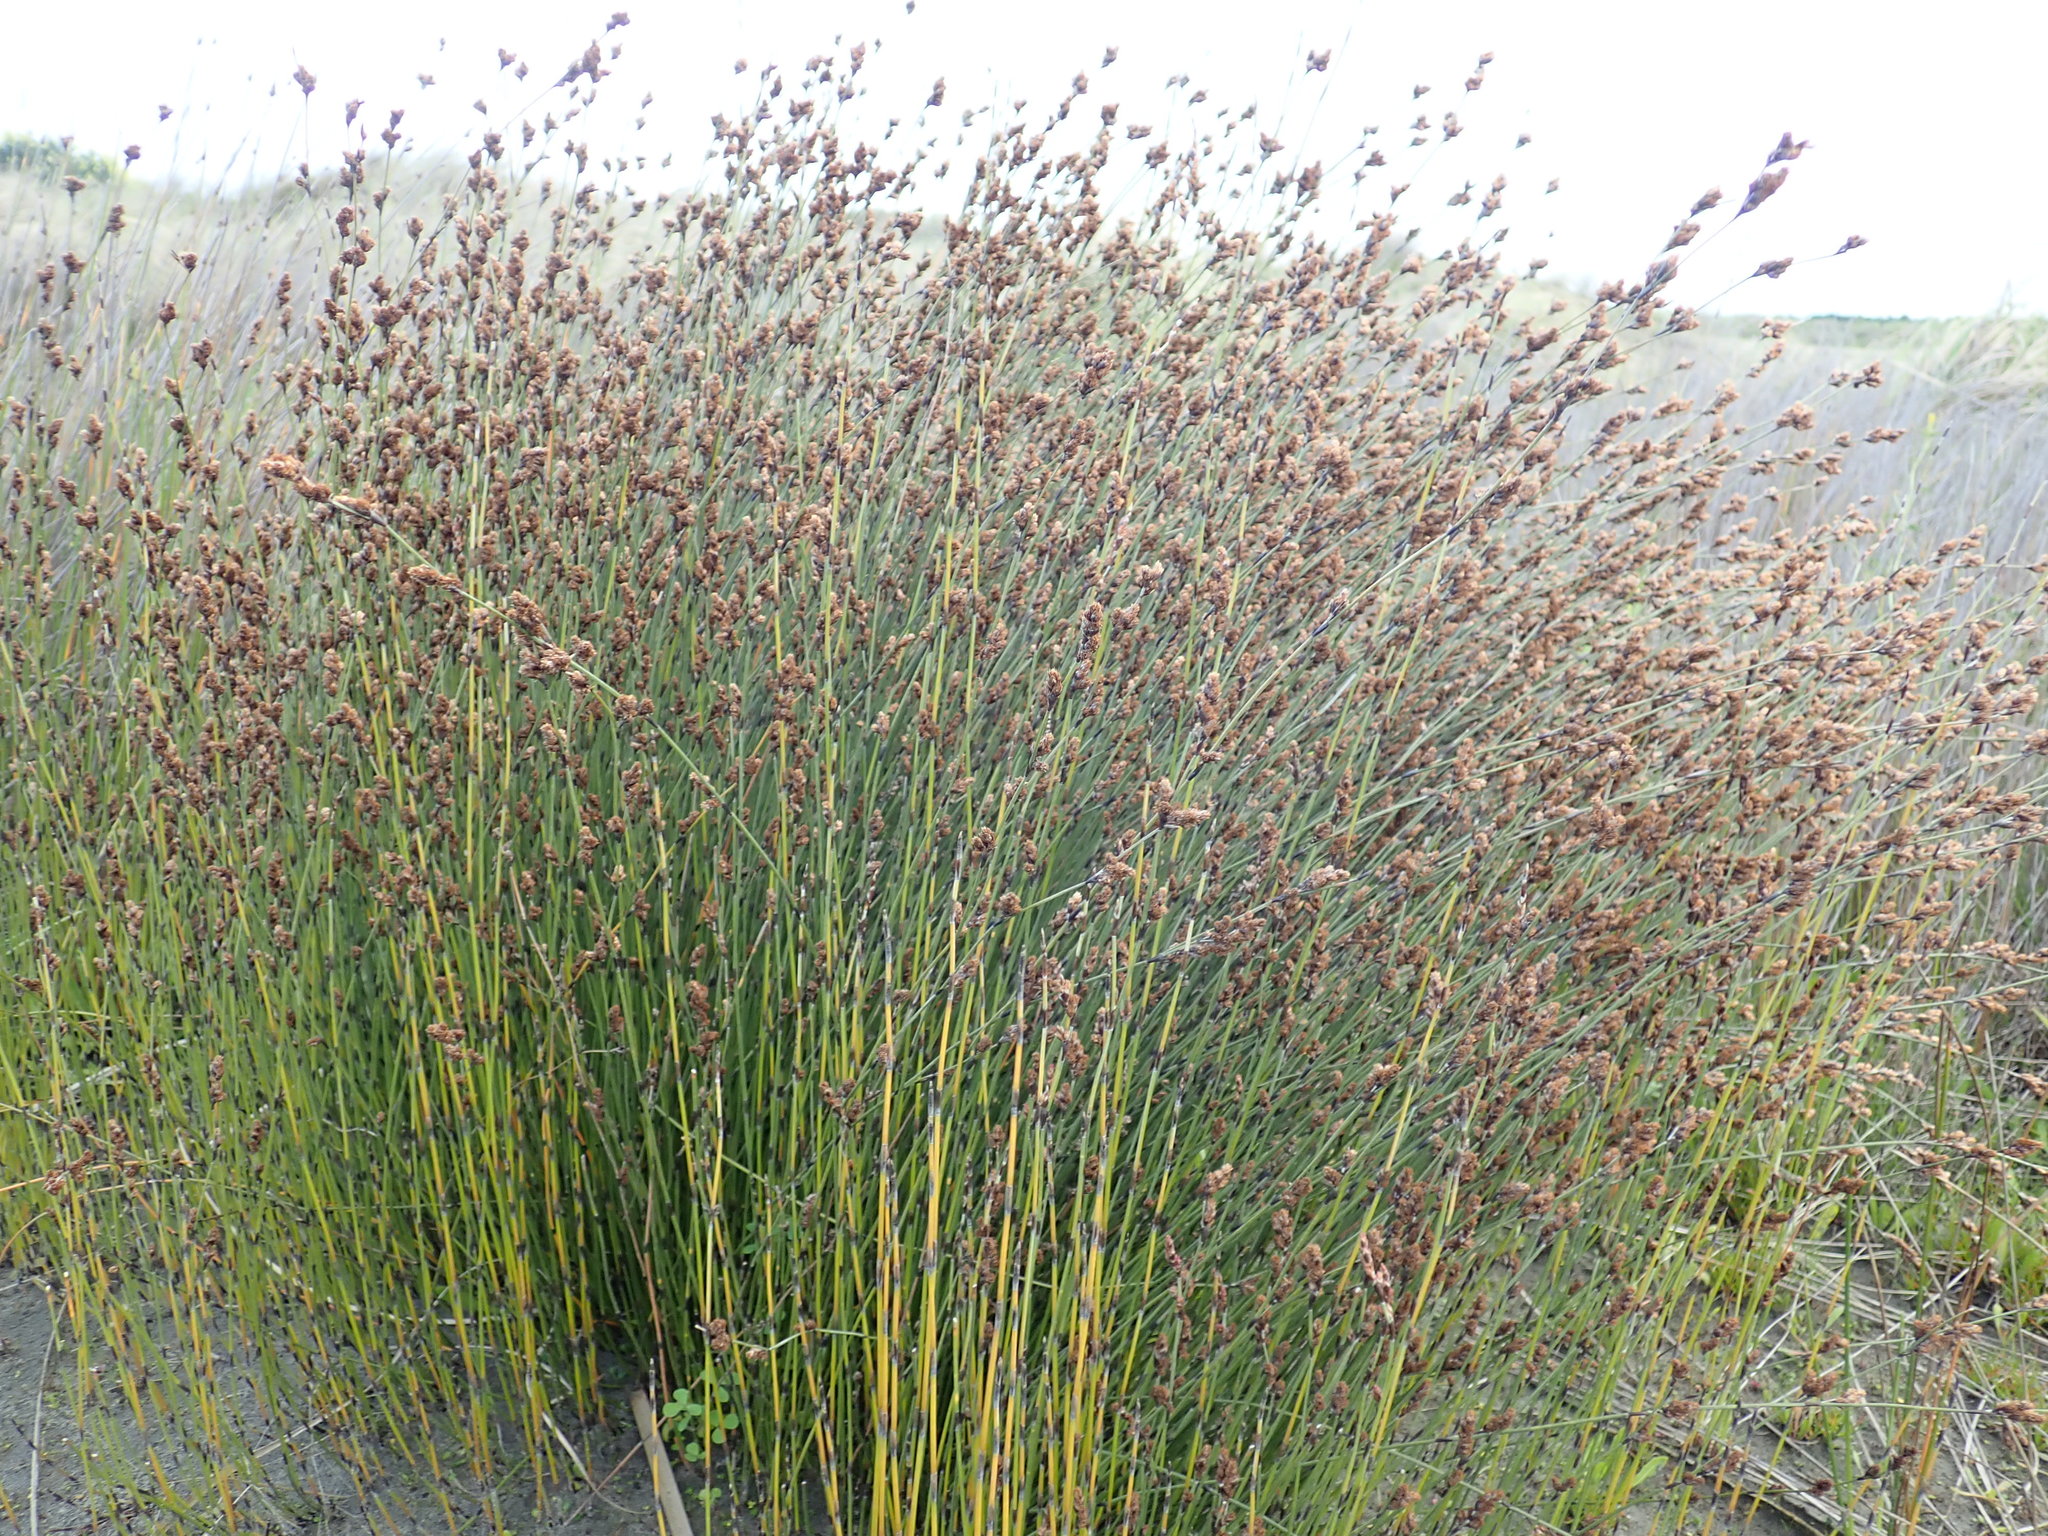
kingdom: Plantae
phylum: Tracheophyta
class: Liliopsida
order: Poales
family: Restionaceae
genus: Apodasmia
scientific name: Apodasmia similis
